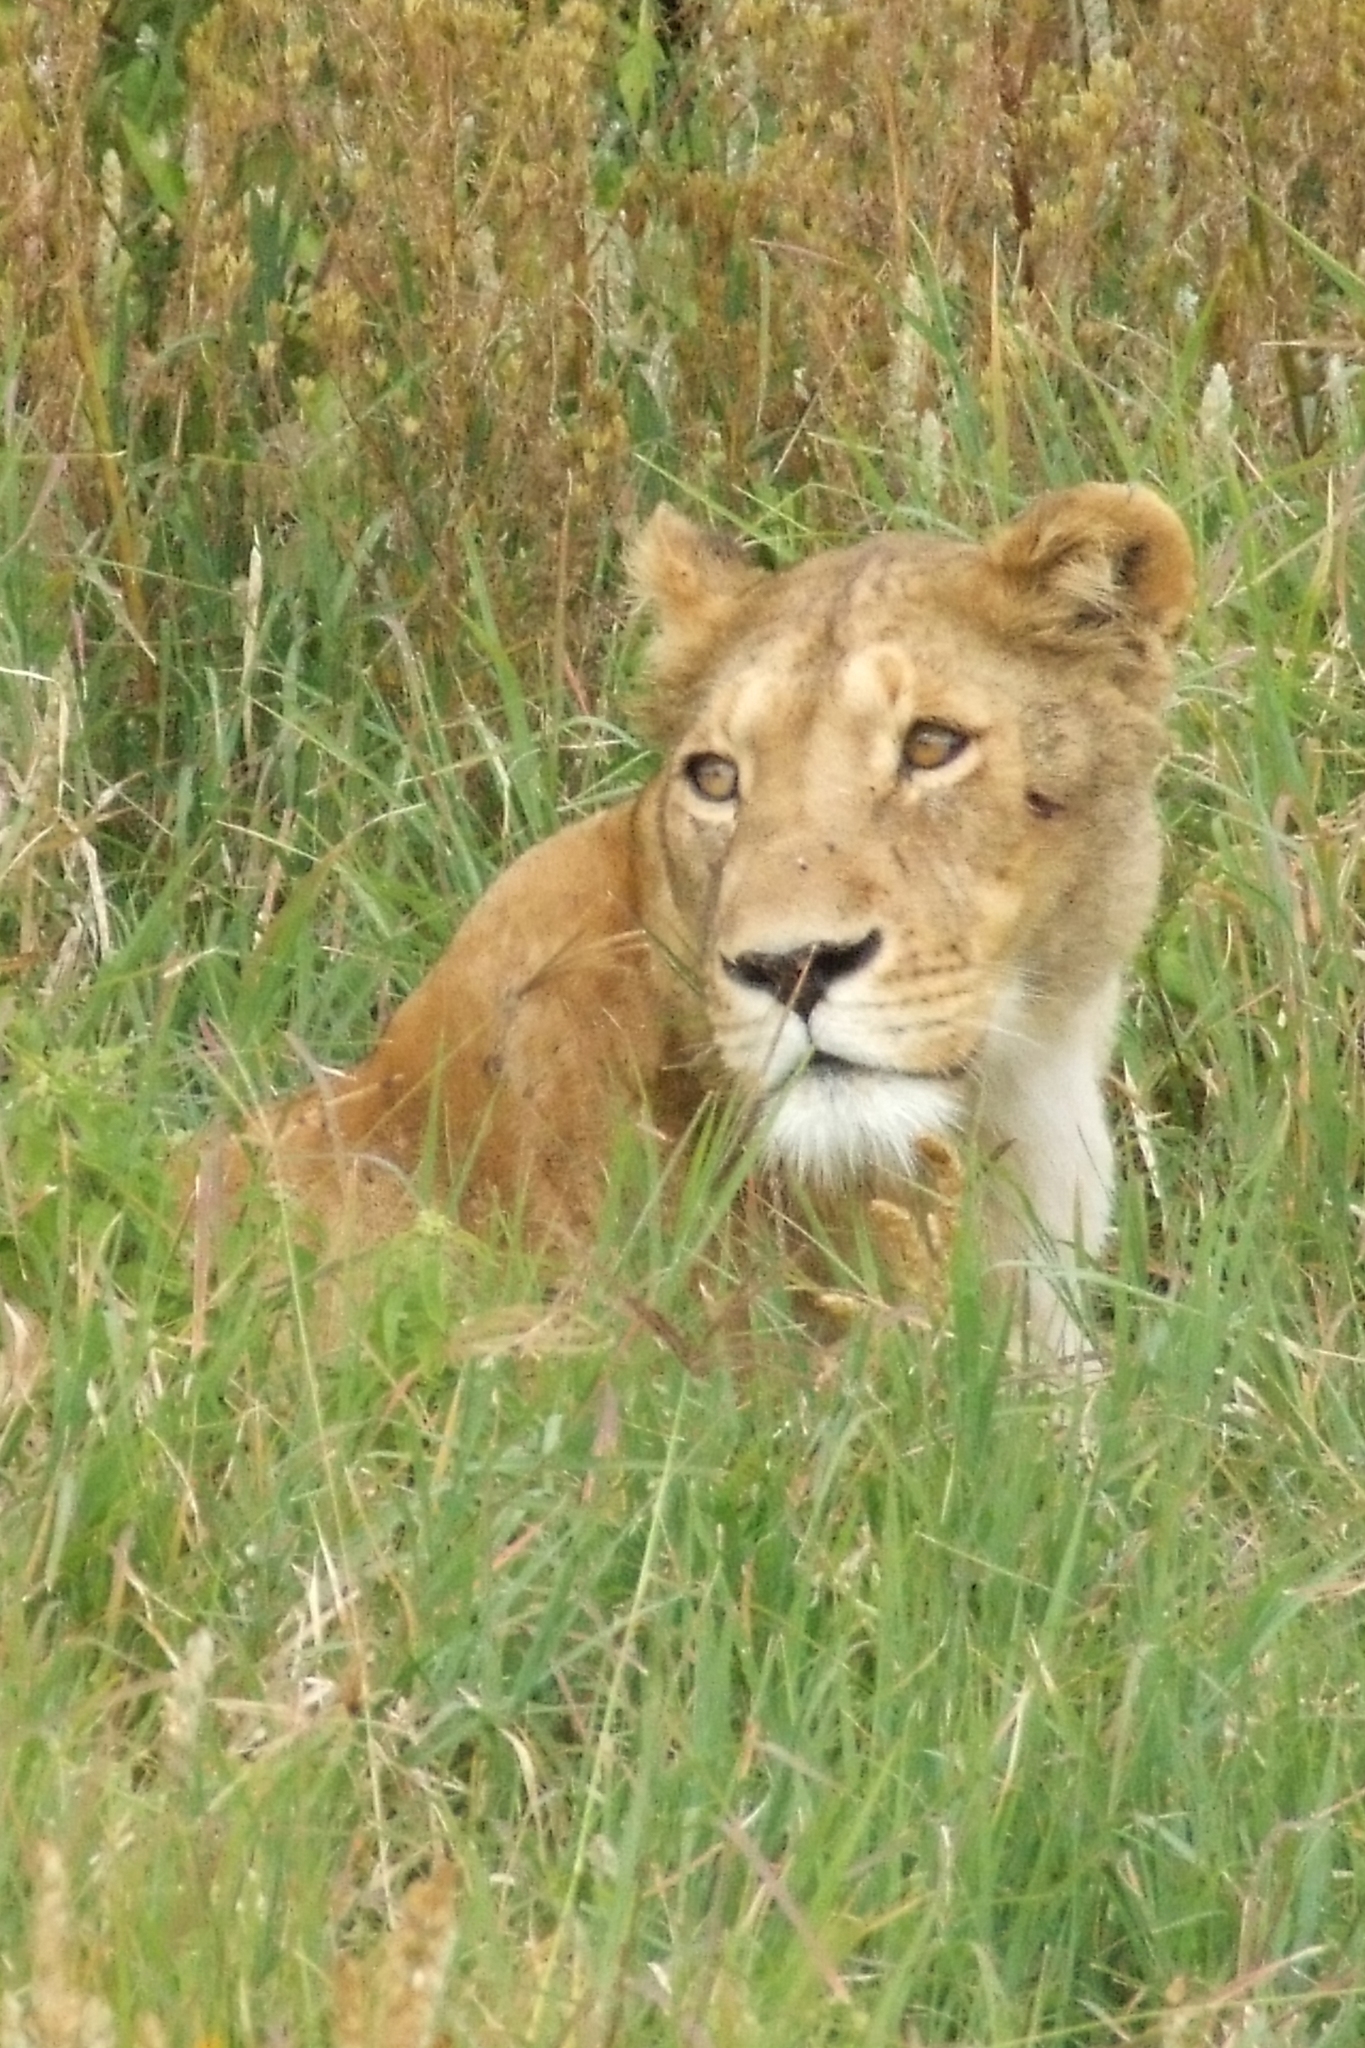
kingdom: Animalia
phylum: Chordata
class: Mammalia
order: Carnivora
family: Felidae
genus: Panthera
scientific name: Panthera leo
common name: Lion
